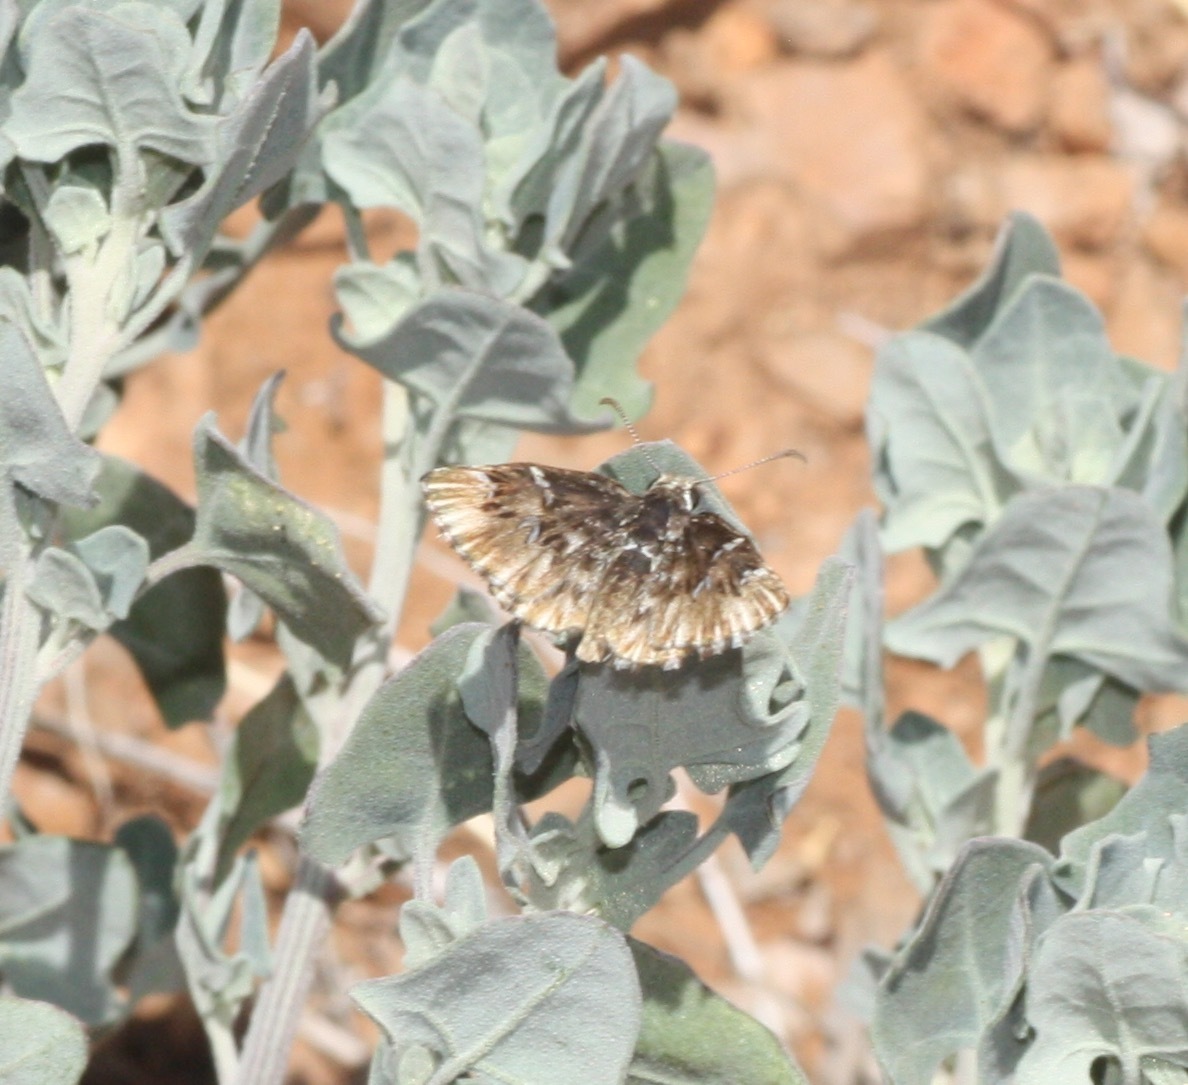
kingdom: Animalia
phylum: Arthropoda
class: Insecta
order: Lepidoptera
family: Hesperiidae
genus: Celotes
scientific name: Celotes nessus
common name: Common streaky-skipper
